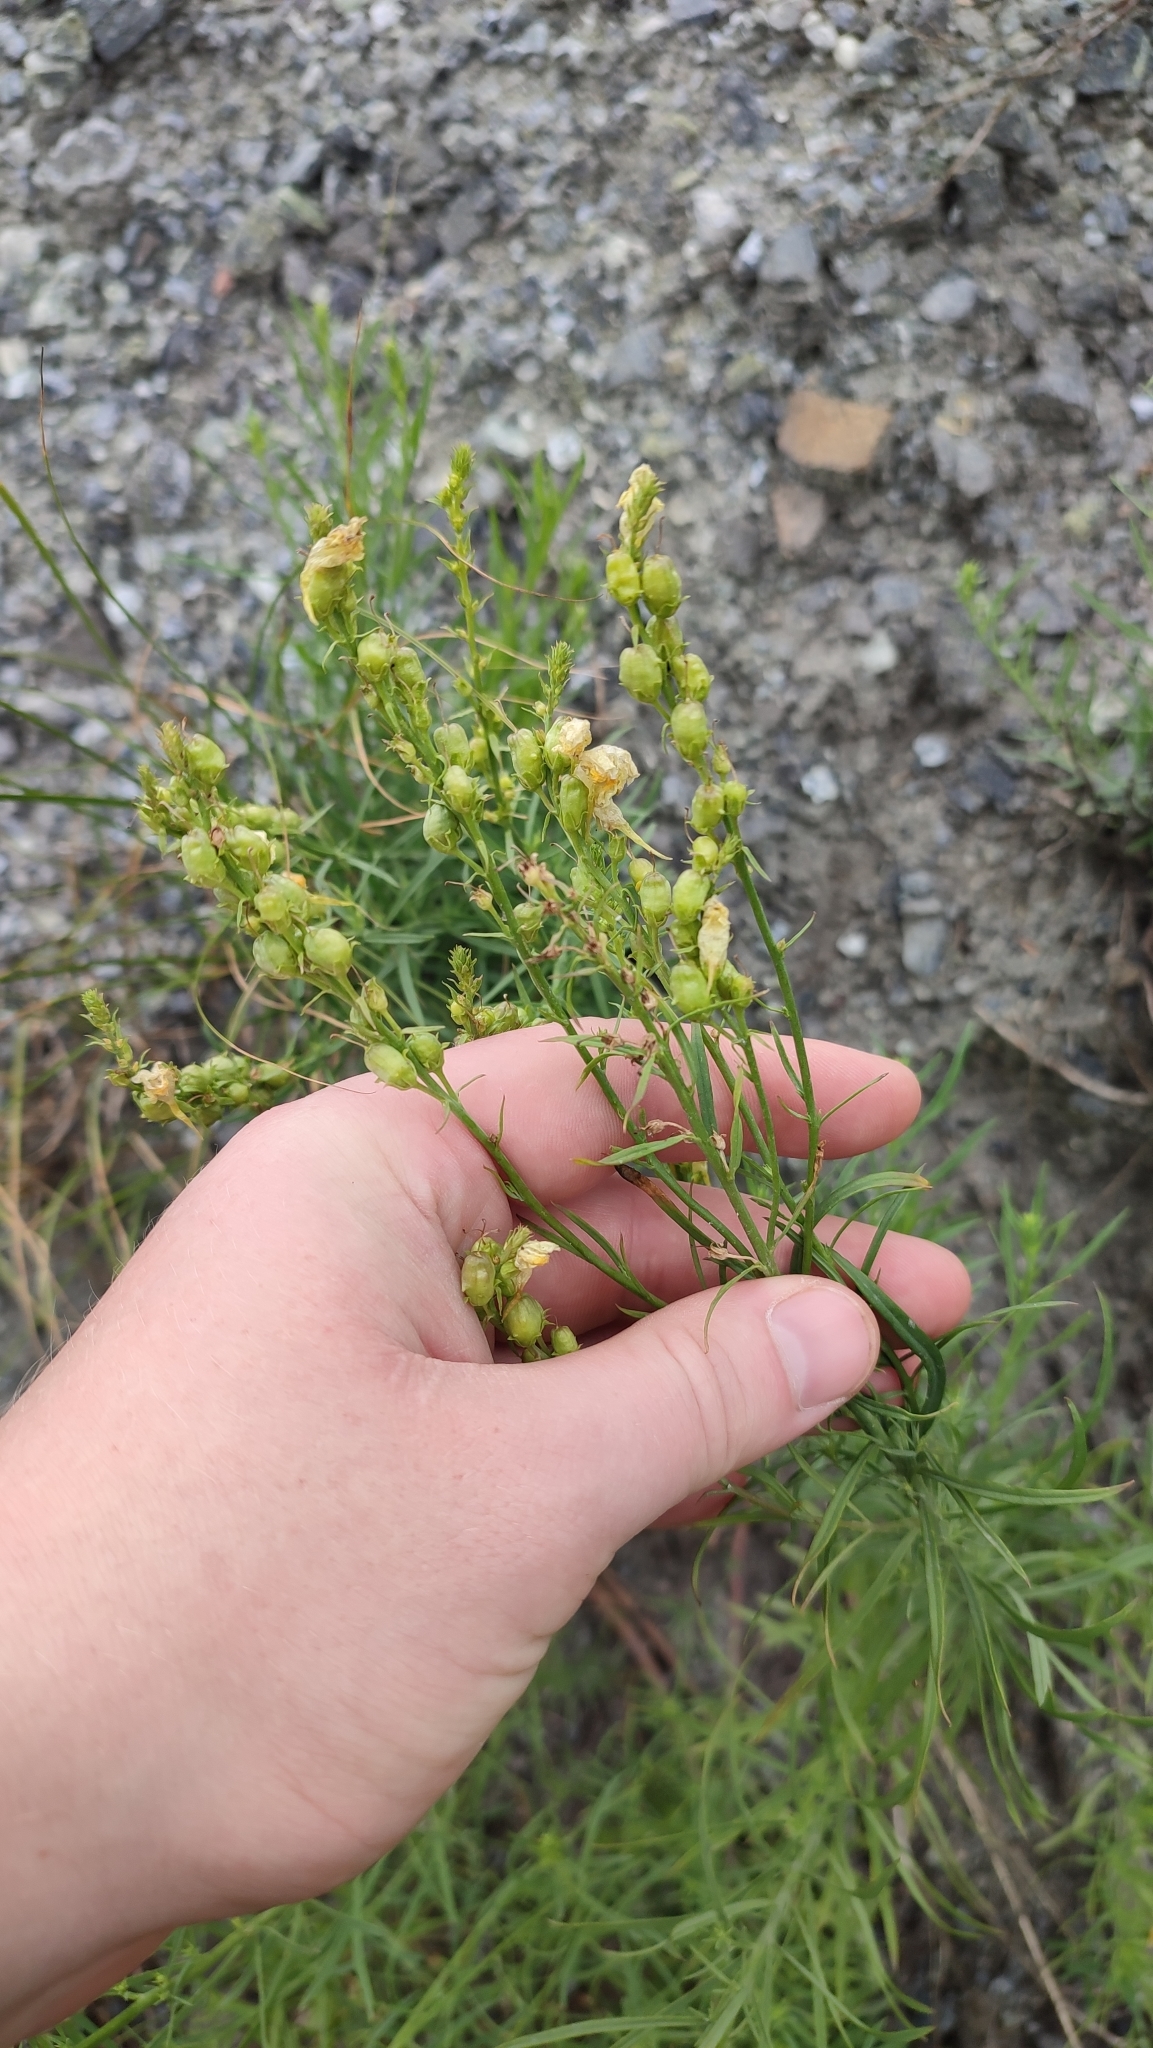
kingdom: Plantae
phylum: Tracheophyta
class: Magnoliopsida
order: Lamiales
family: Plantaginaceae
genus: Linaria
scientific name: Linaria vulgaris
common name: Butter and eggs
